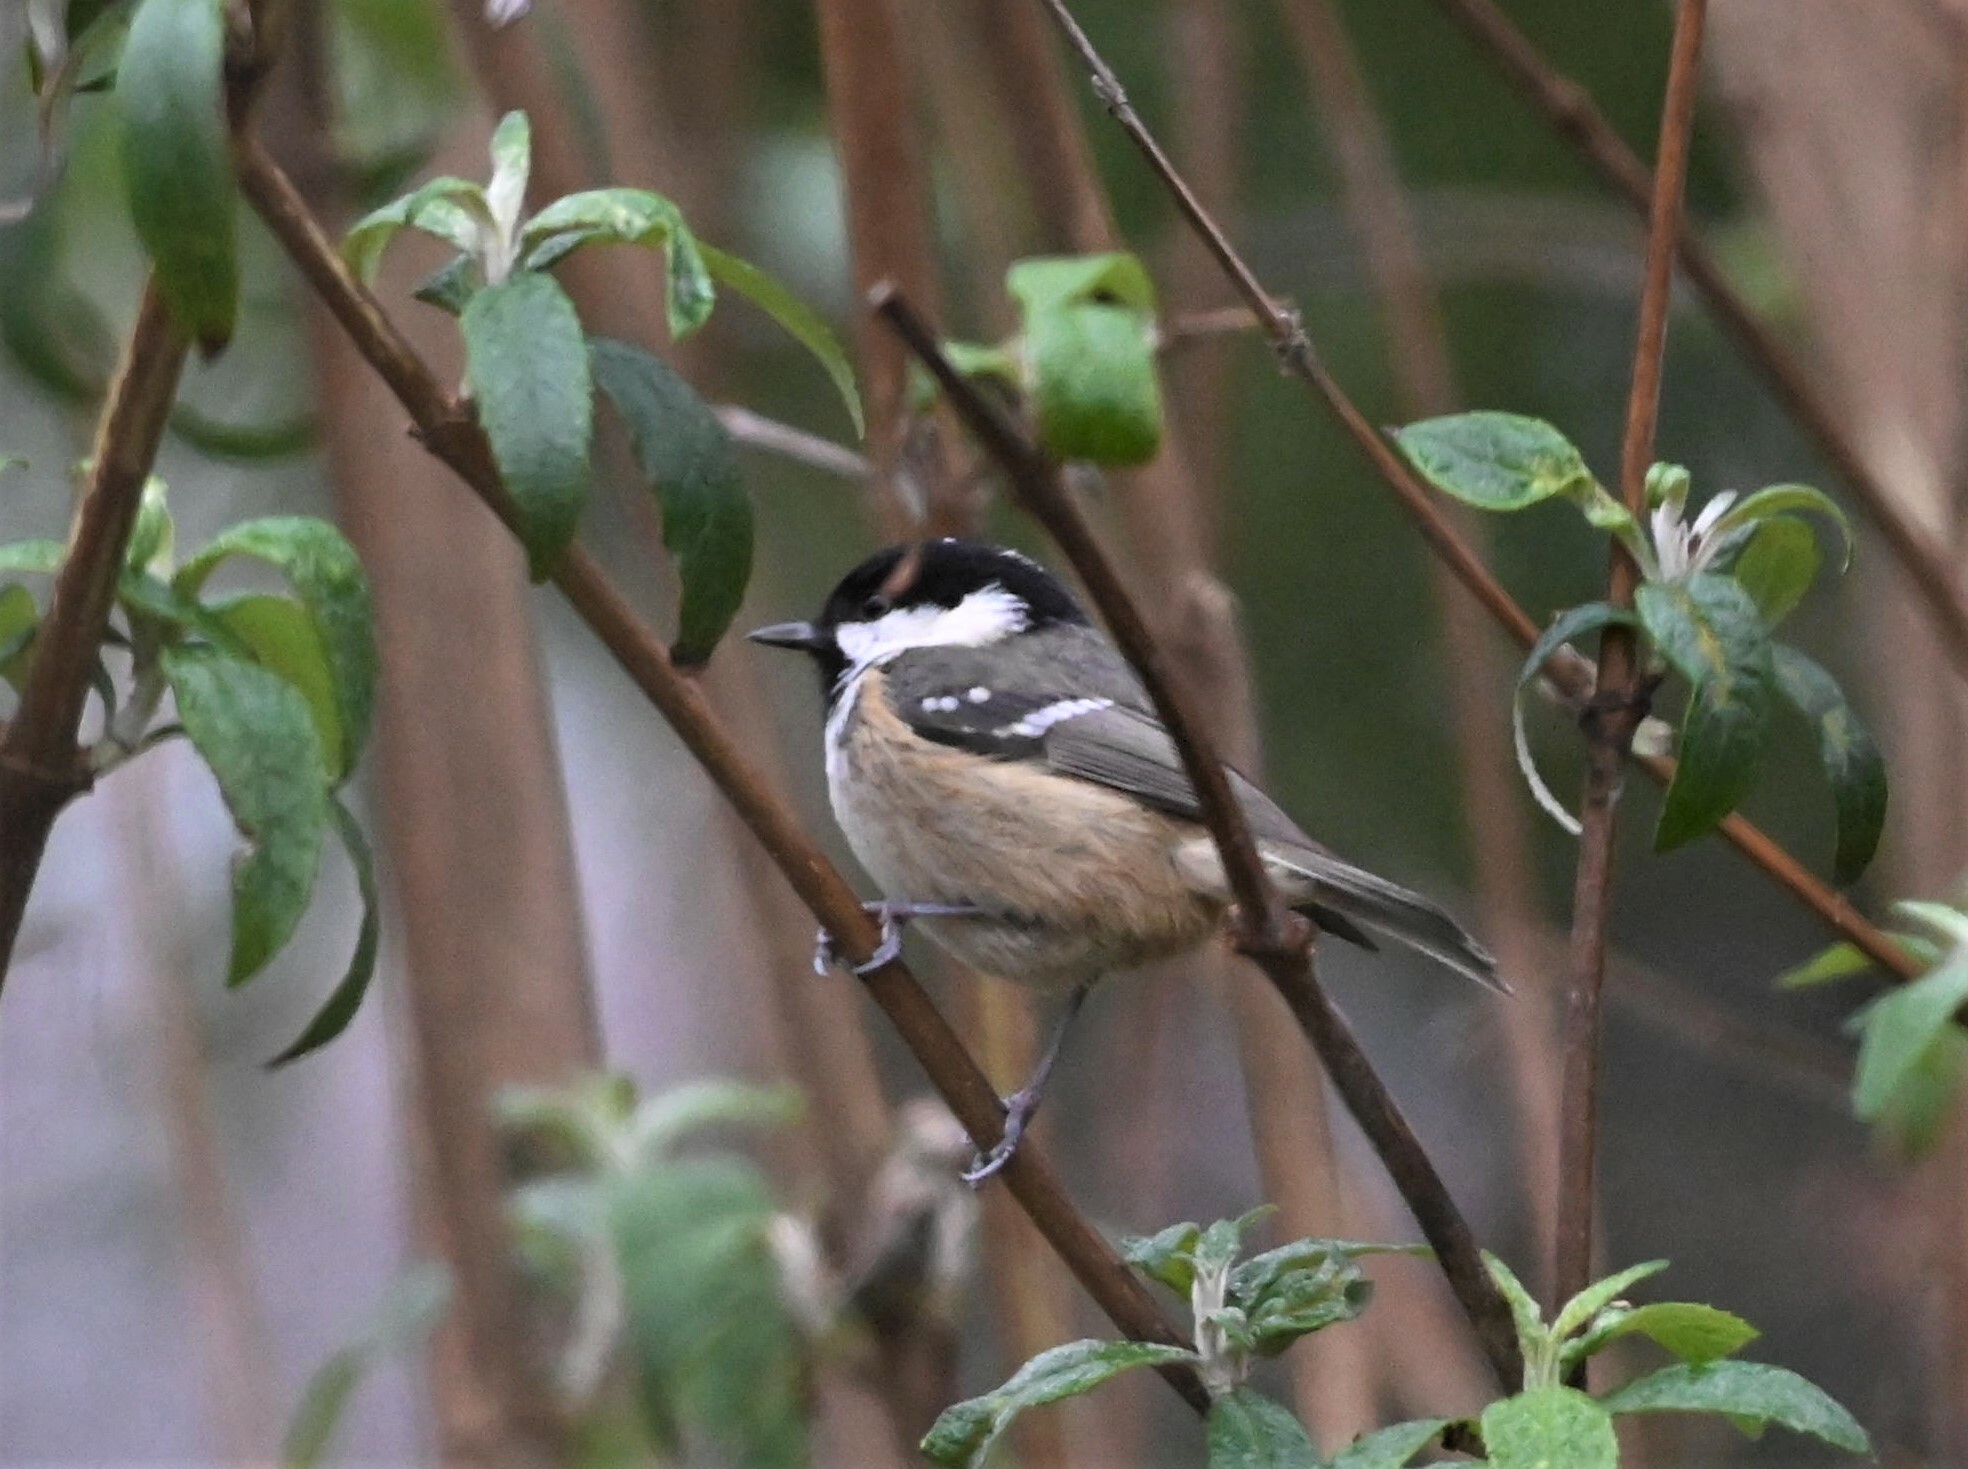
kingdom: Animalia
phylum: Chordata
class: Aves
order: Passeriformes
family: Paridae
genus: Periparus
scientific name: Periparus ater
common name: Coal tit
